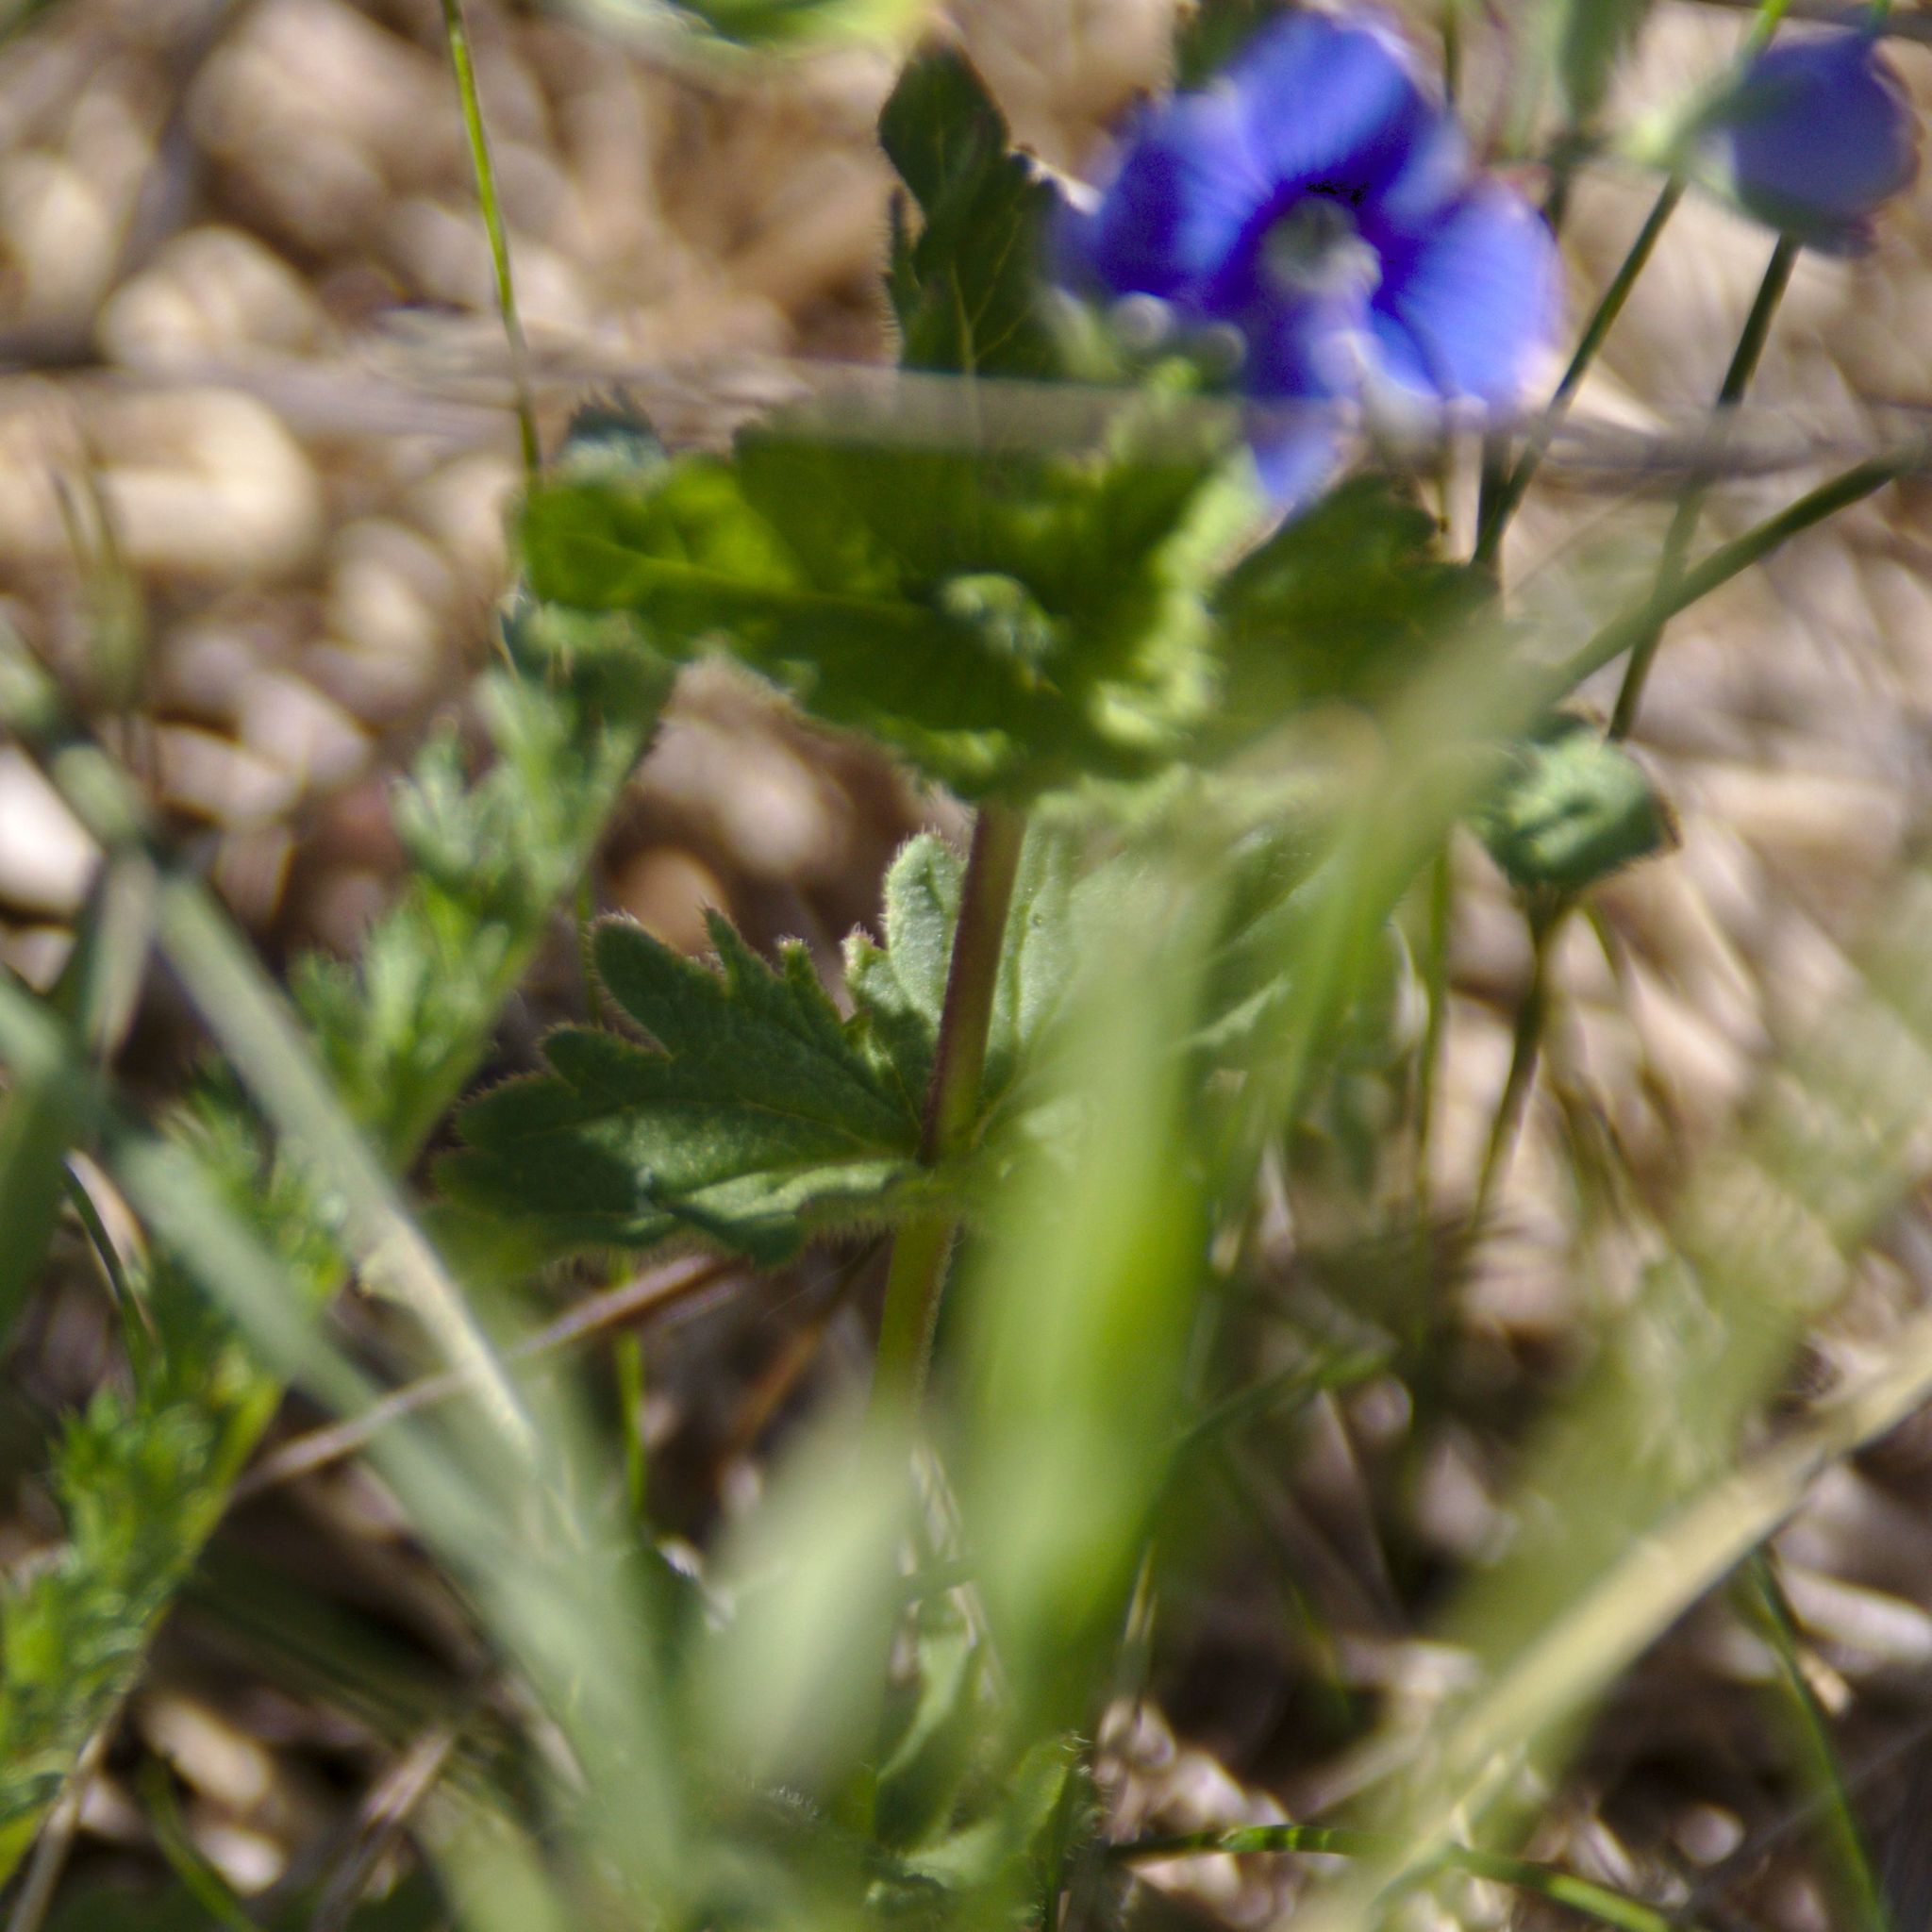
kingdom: Plantae
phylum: Tracheophyta
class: Magnoliopsida
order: Lamiales
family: Plantaginaceae
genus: Veronica
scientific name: Veronica chamaedrys
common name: Germander speedwell
